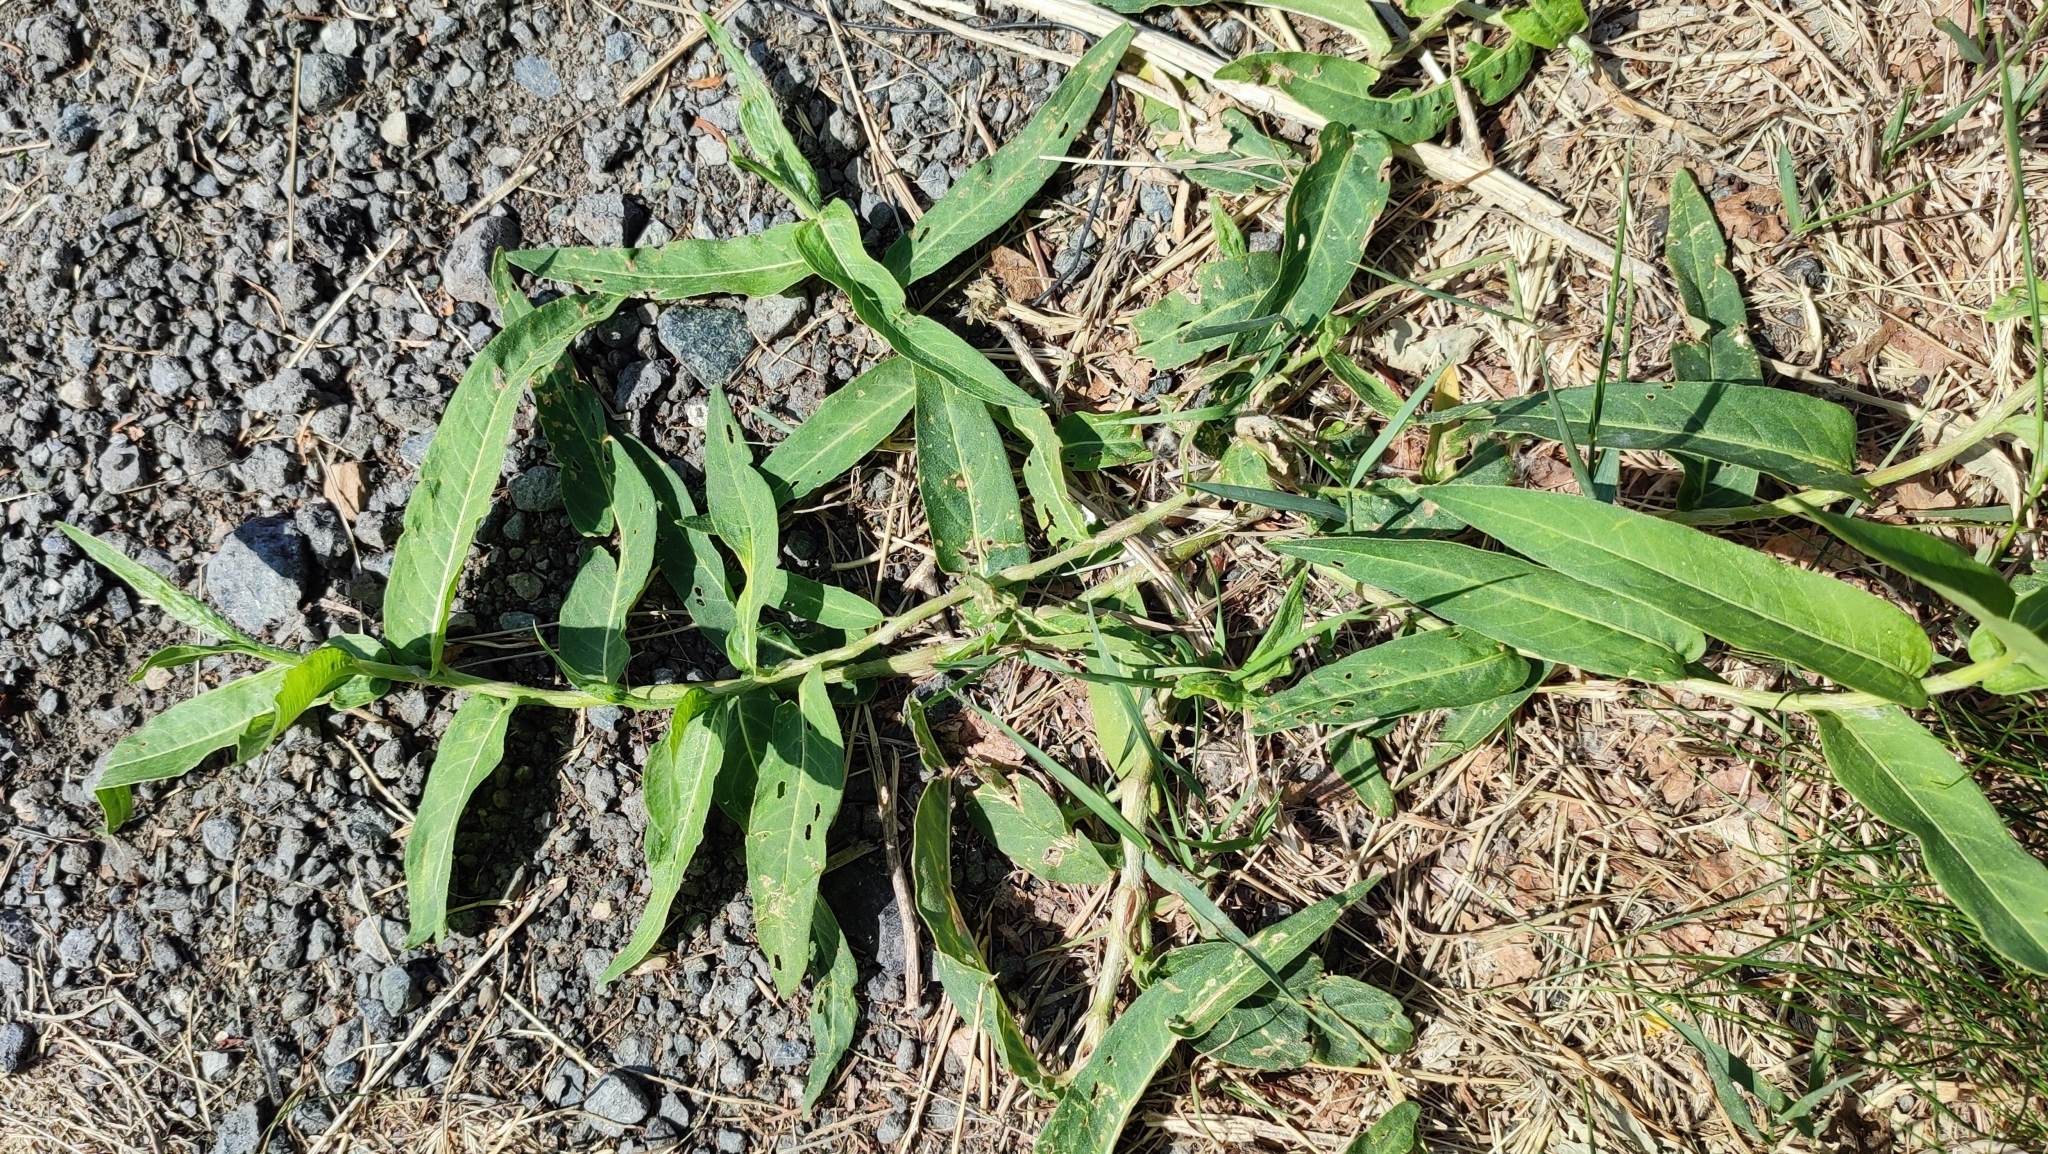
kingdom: Plantae
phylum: Tracheophyta
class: Magnoliopsida
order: Caryophyllales
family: Polygonaceae
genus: Persicaria
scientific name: Persicaria amphibia
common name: Amphibious bistort
